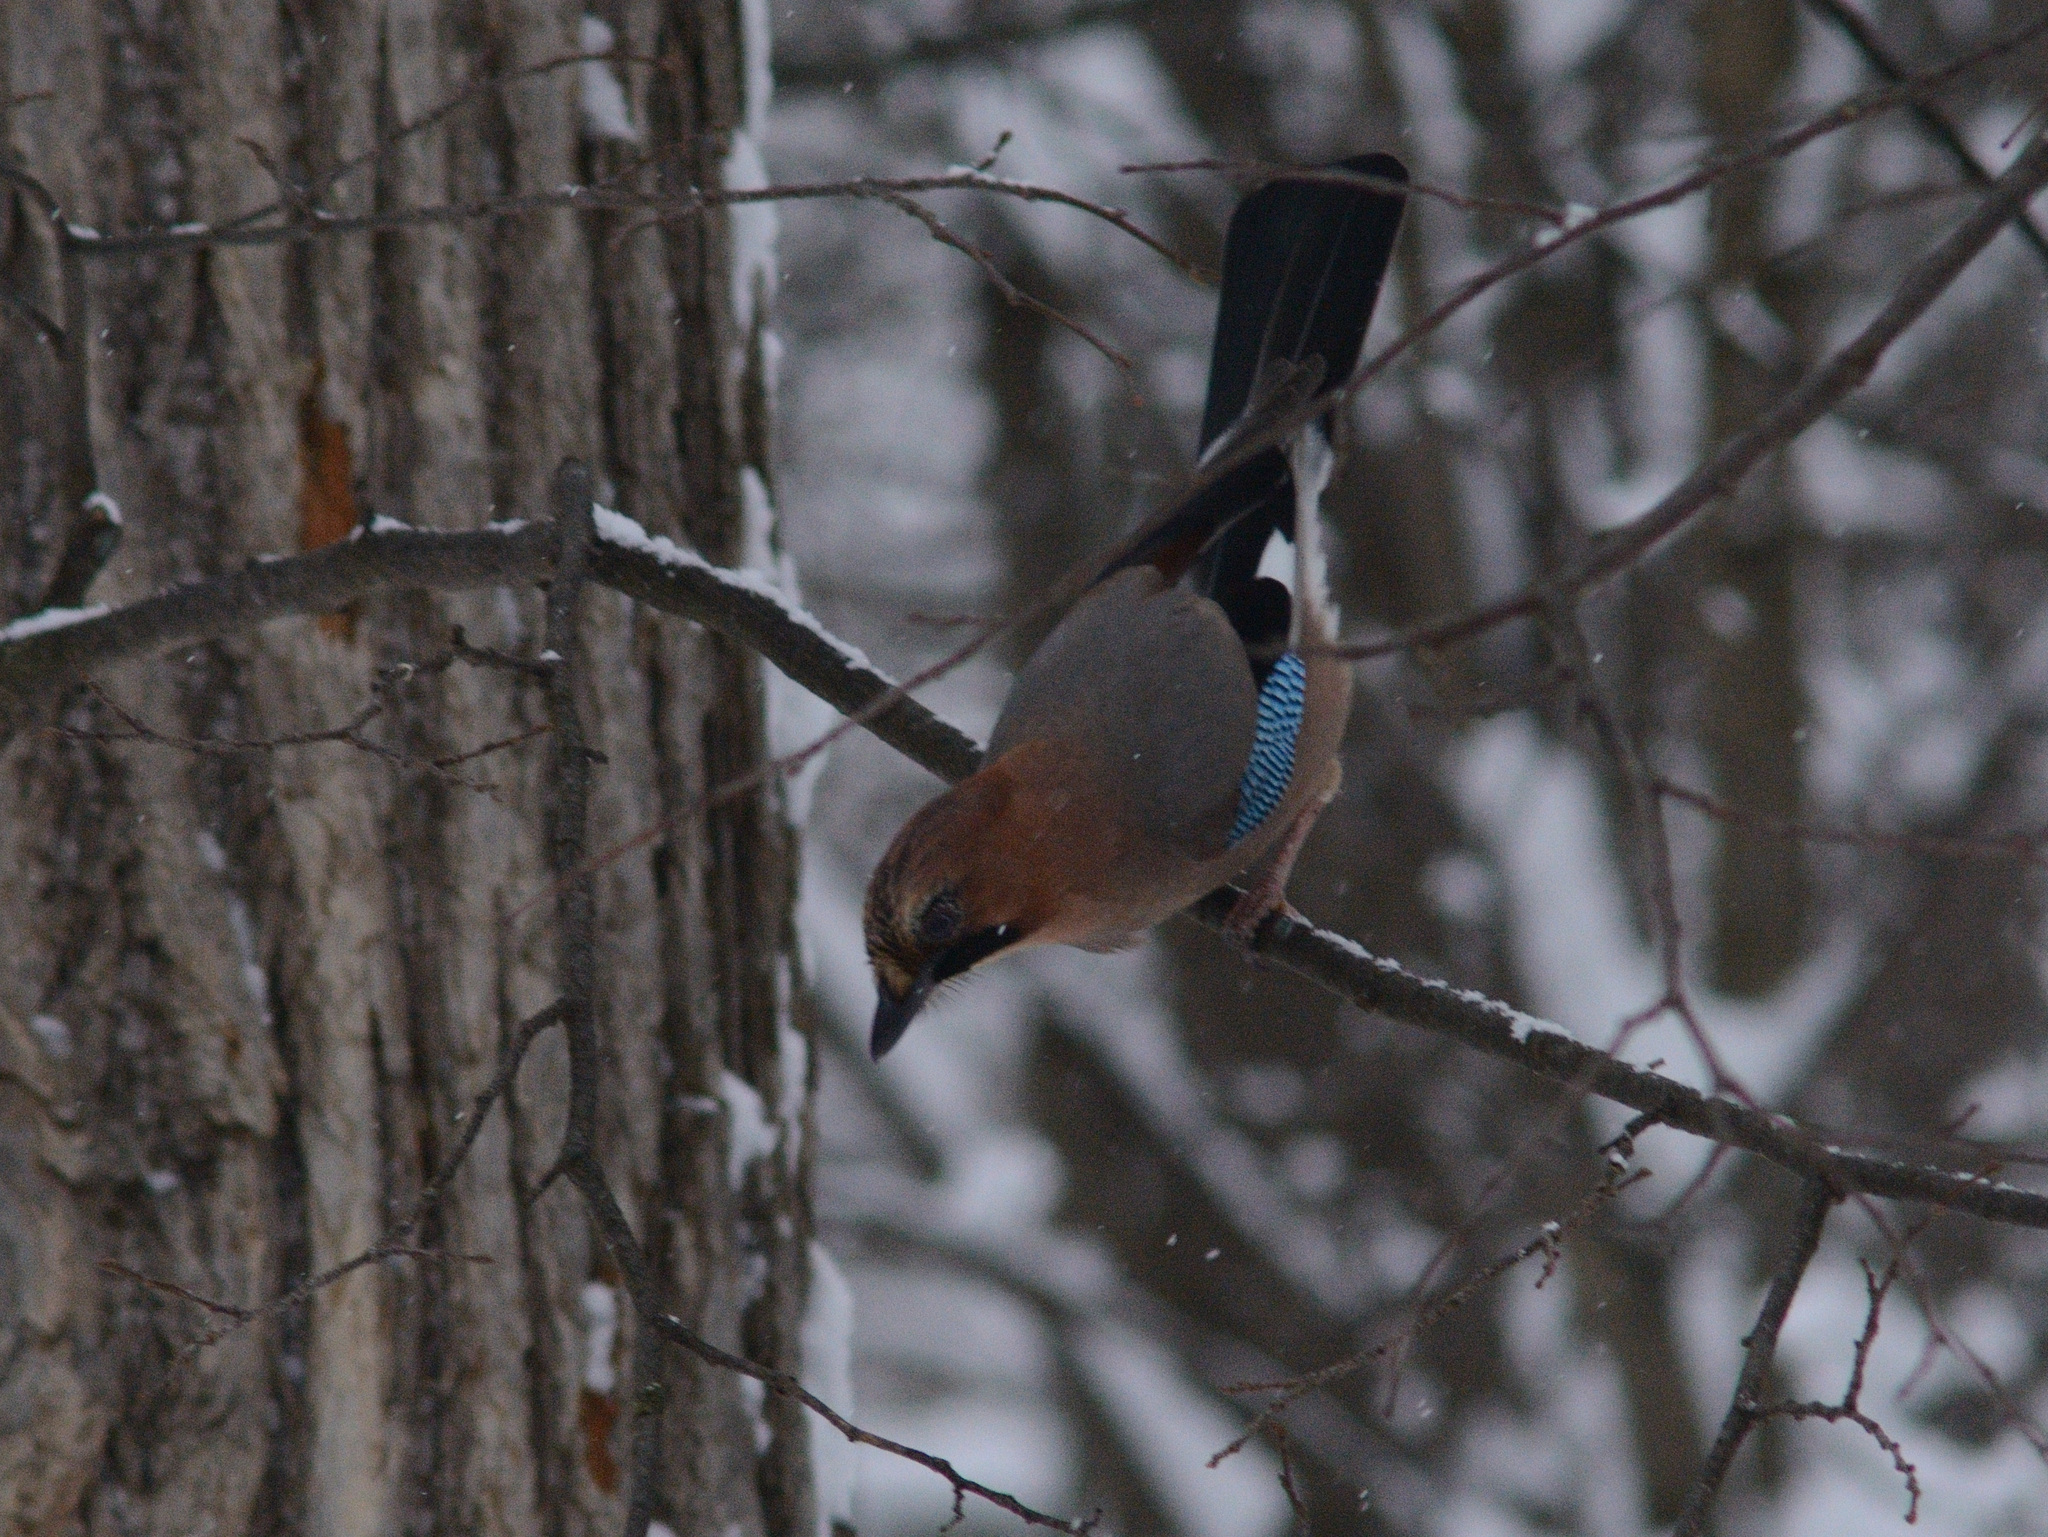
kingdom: Animalia
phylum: Chordata
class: Aves
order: Passeriformes
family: Corvidae
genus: Garrulus
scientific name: Garrulus glandarius
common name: Eurasian jay
